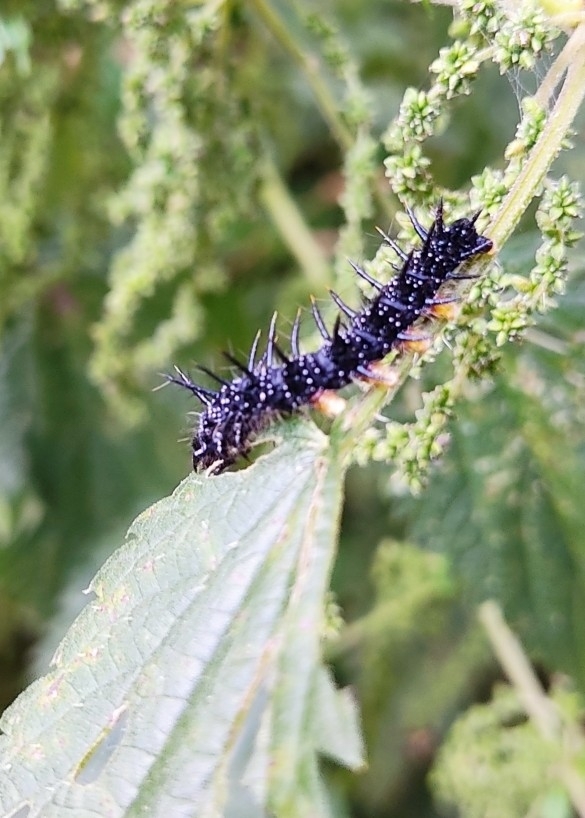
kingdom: Animalia
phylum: Arthropoda
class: Insecta
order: Lepidoptera
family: Nymphalidae
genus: Aglais
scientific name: Aglais io
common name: Peacock
